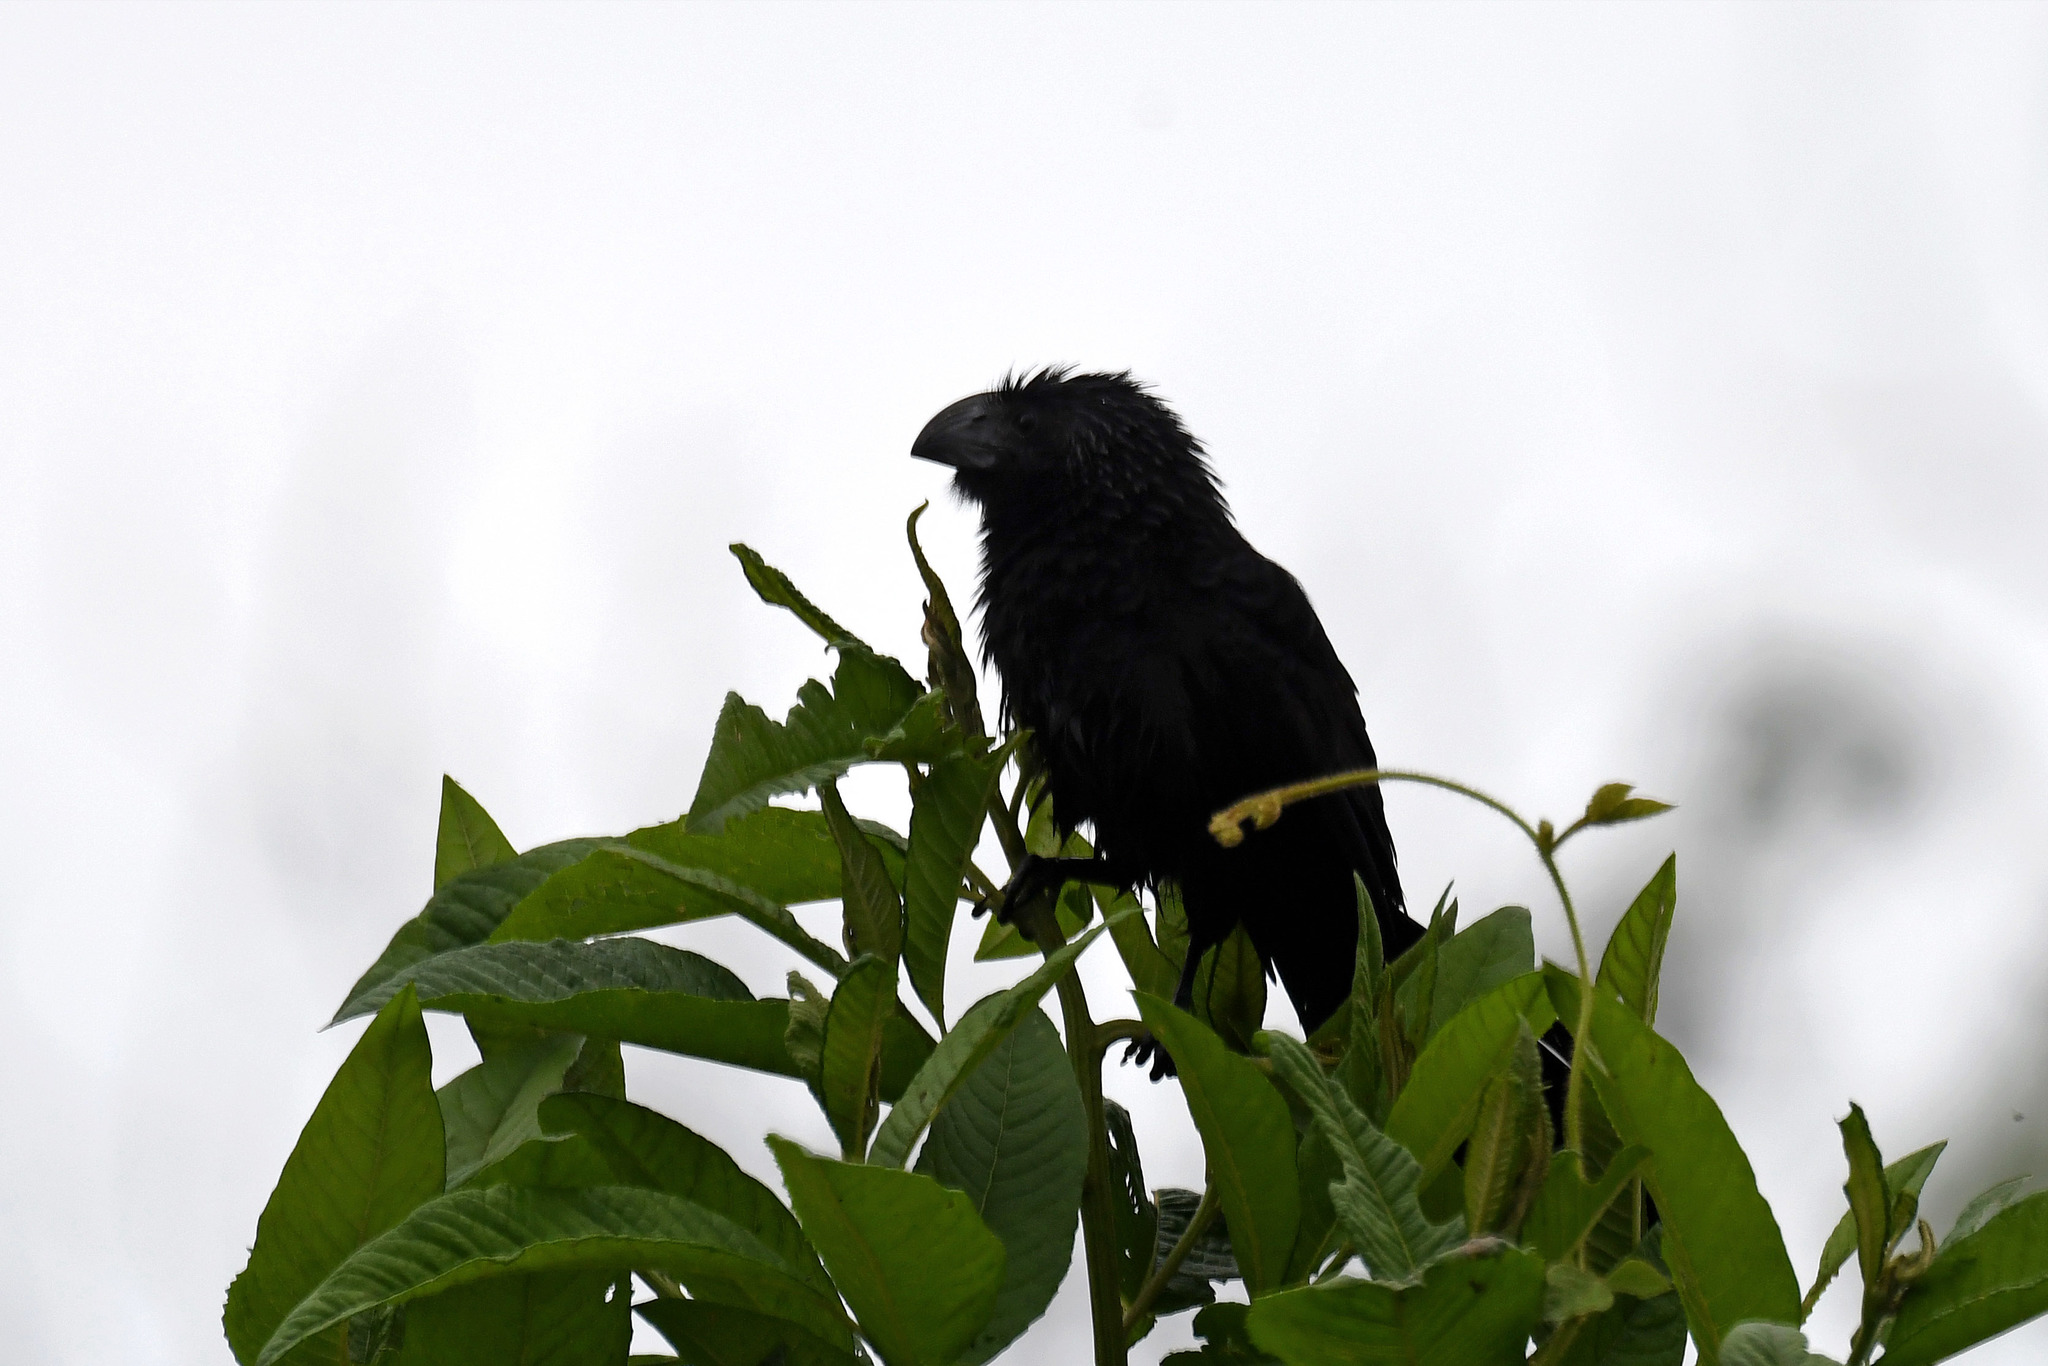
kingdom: Animalia
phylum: Chordata
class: Aves
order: Cuculiformes
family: Cuculidae
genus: Crotophaga
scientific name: Crotophaga sulcirostris
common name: Groove-billed ani
